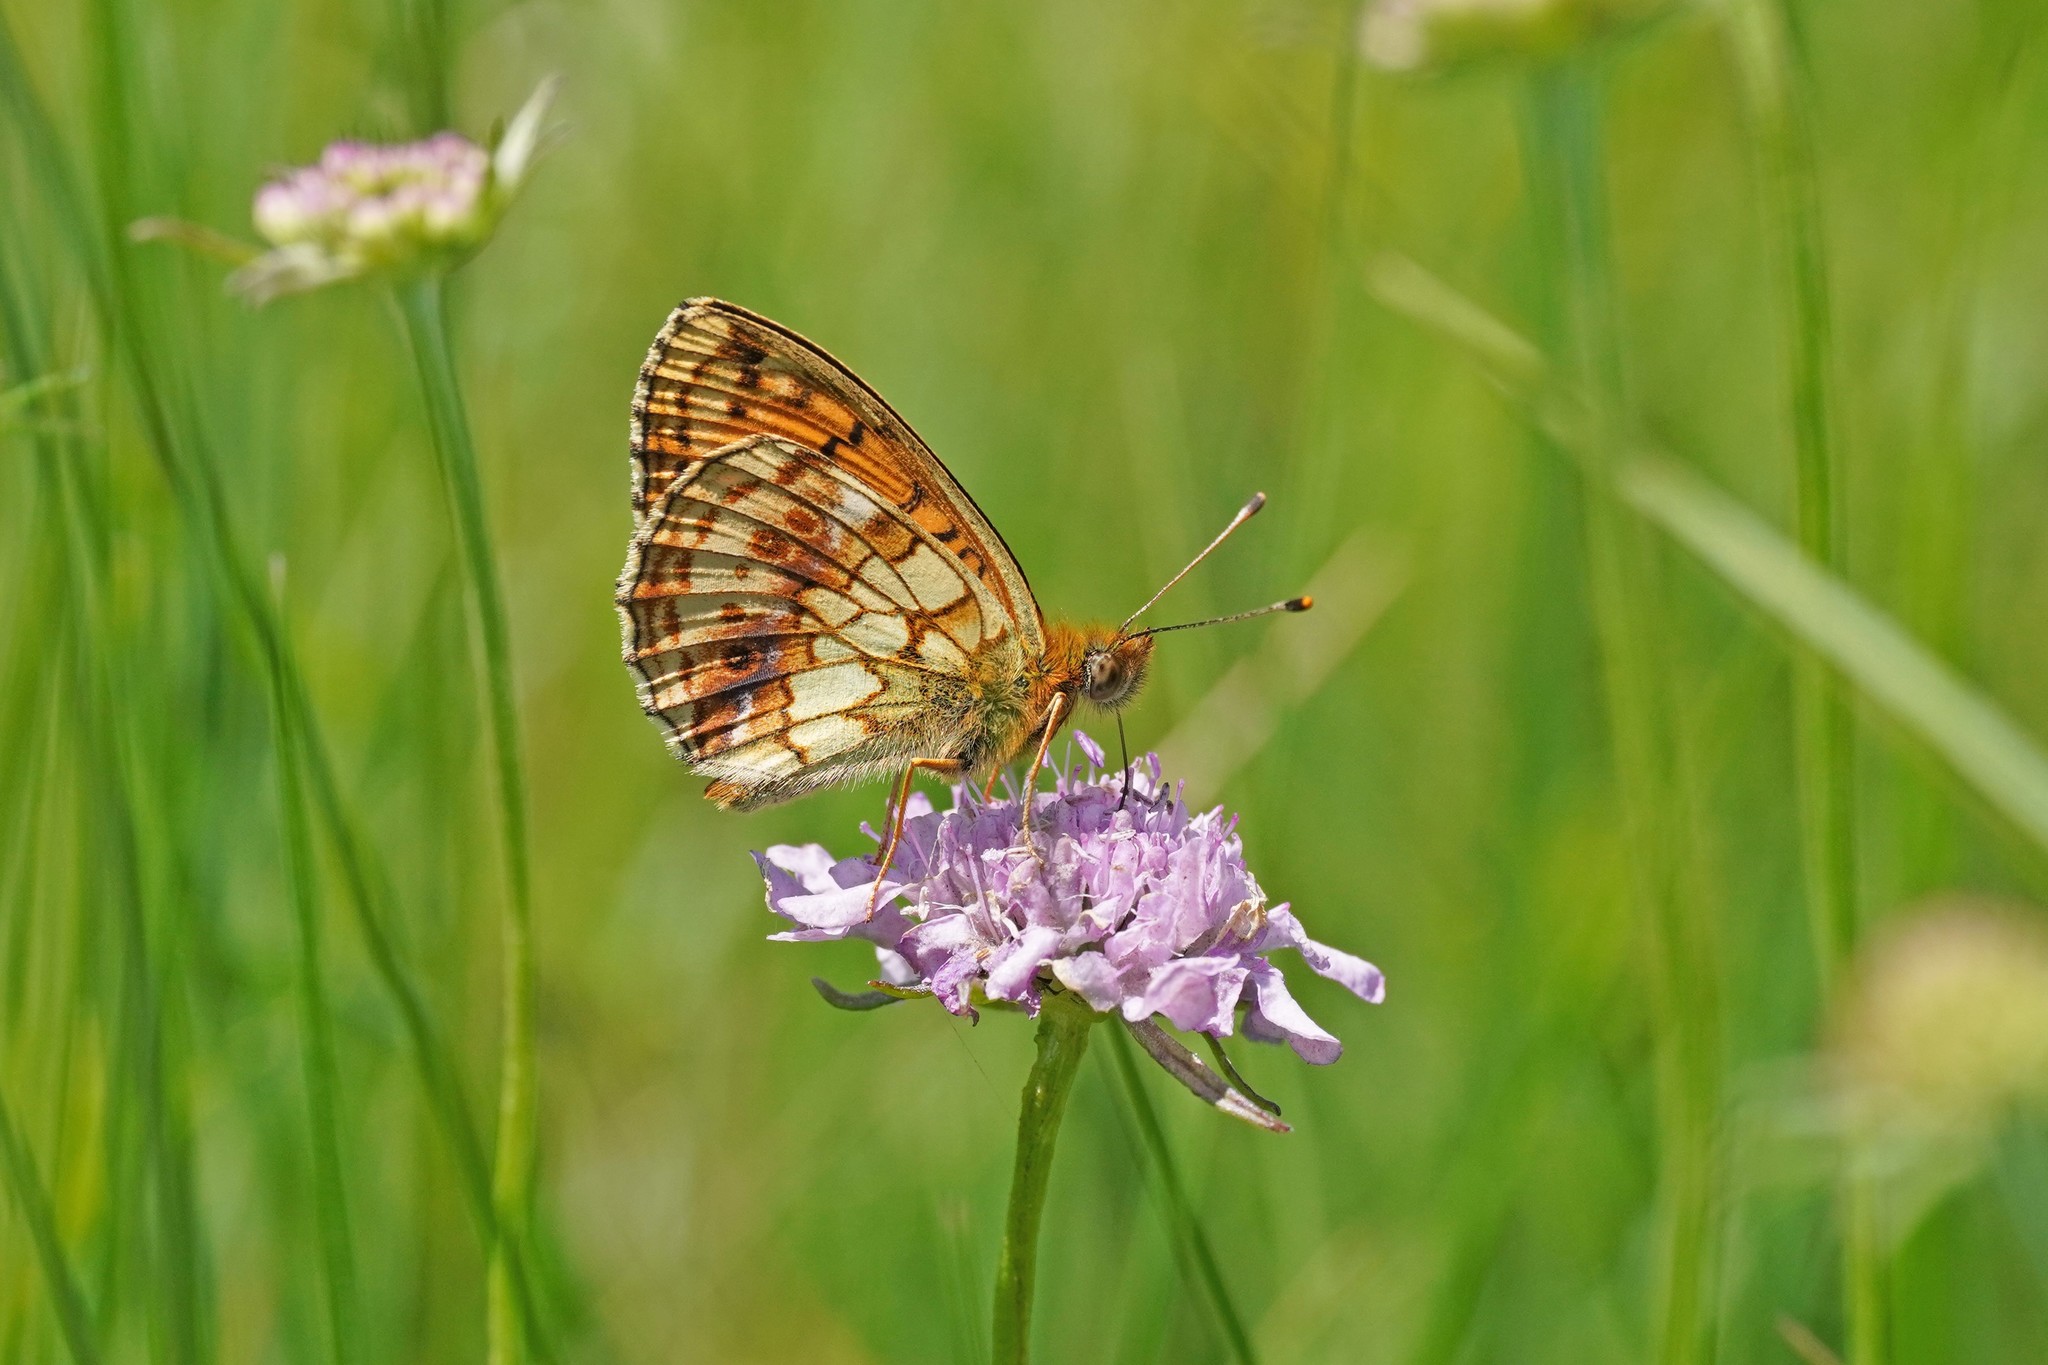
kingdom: Animalia
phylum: Arthropoda
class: Insecta
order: Lepidoptera
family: Nymphalidae
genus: Brenthis
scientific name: Brenthis ino
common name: Lesser marbled fritillary
